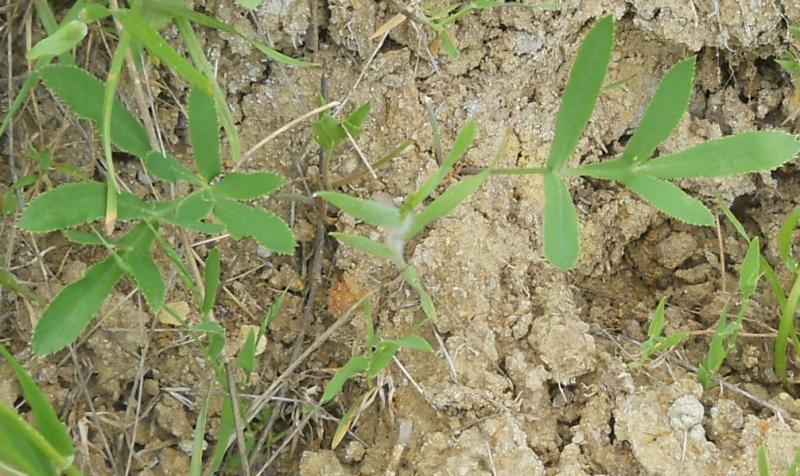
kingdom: Plantae
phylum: Tracheophyta
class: Magnoliopsida
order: Apiales
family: Apiaceae
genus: Falcaria
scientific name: Falcaria vulgaris
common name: Longleaf
